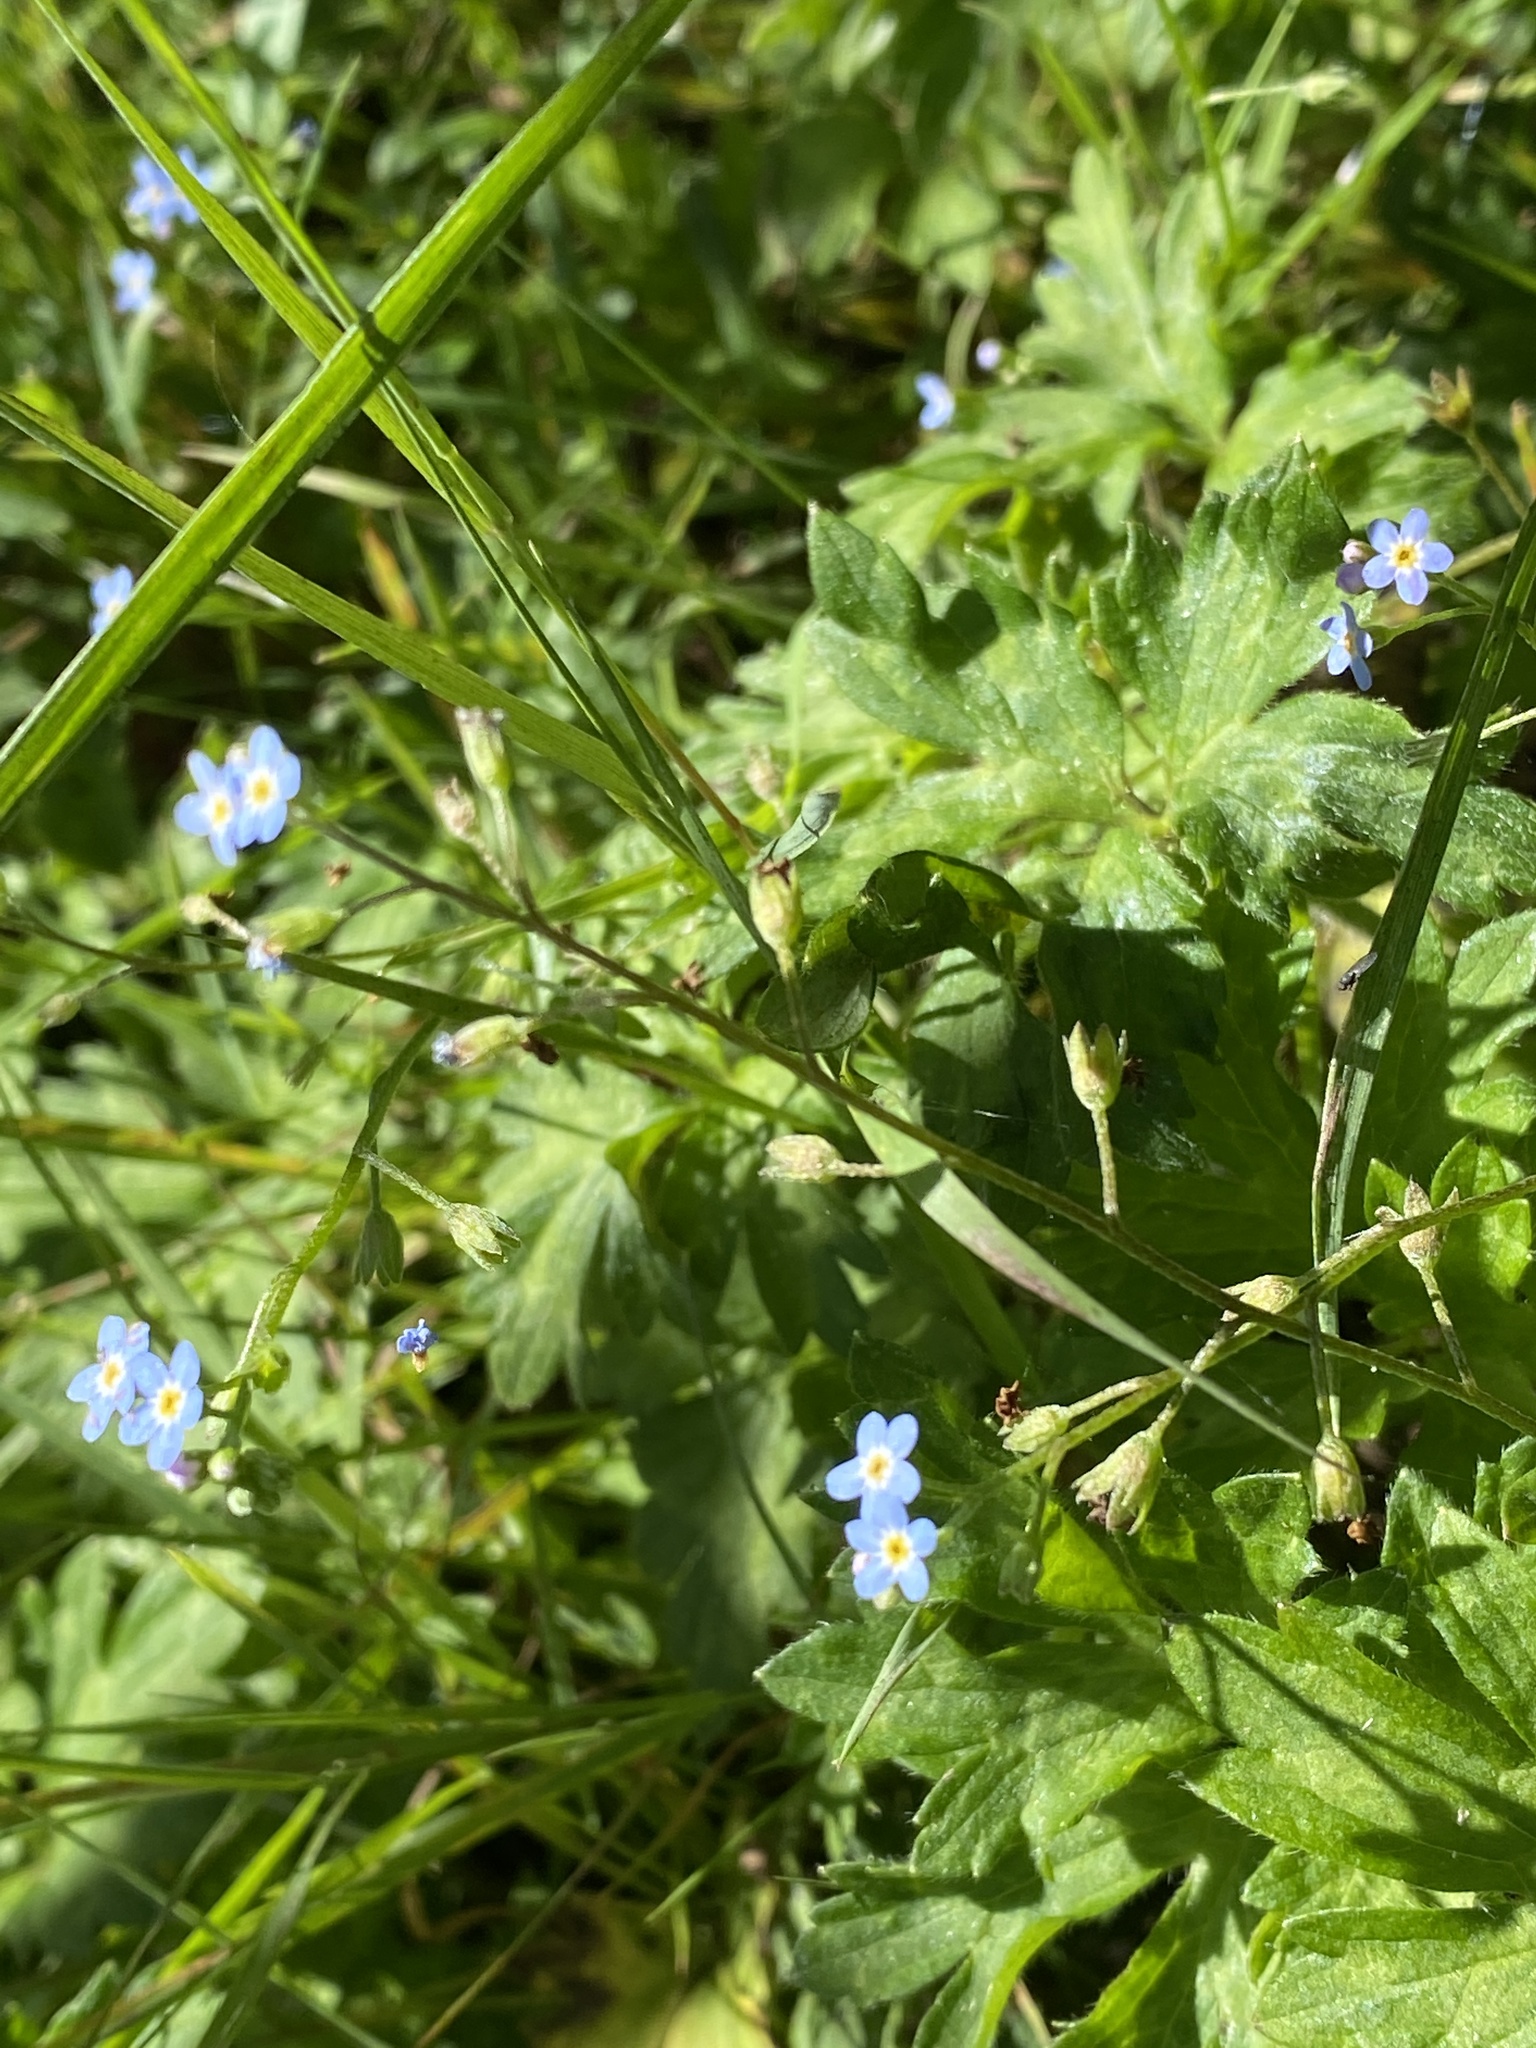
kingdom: Plantae
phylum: Tracheophyta
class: Magnoliopsida
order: Boraginales
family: Boraginaceae
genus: Myosotis
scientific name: Myosotis laxa
